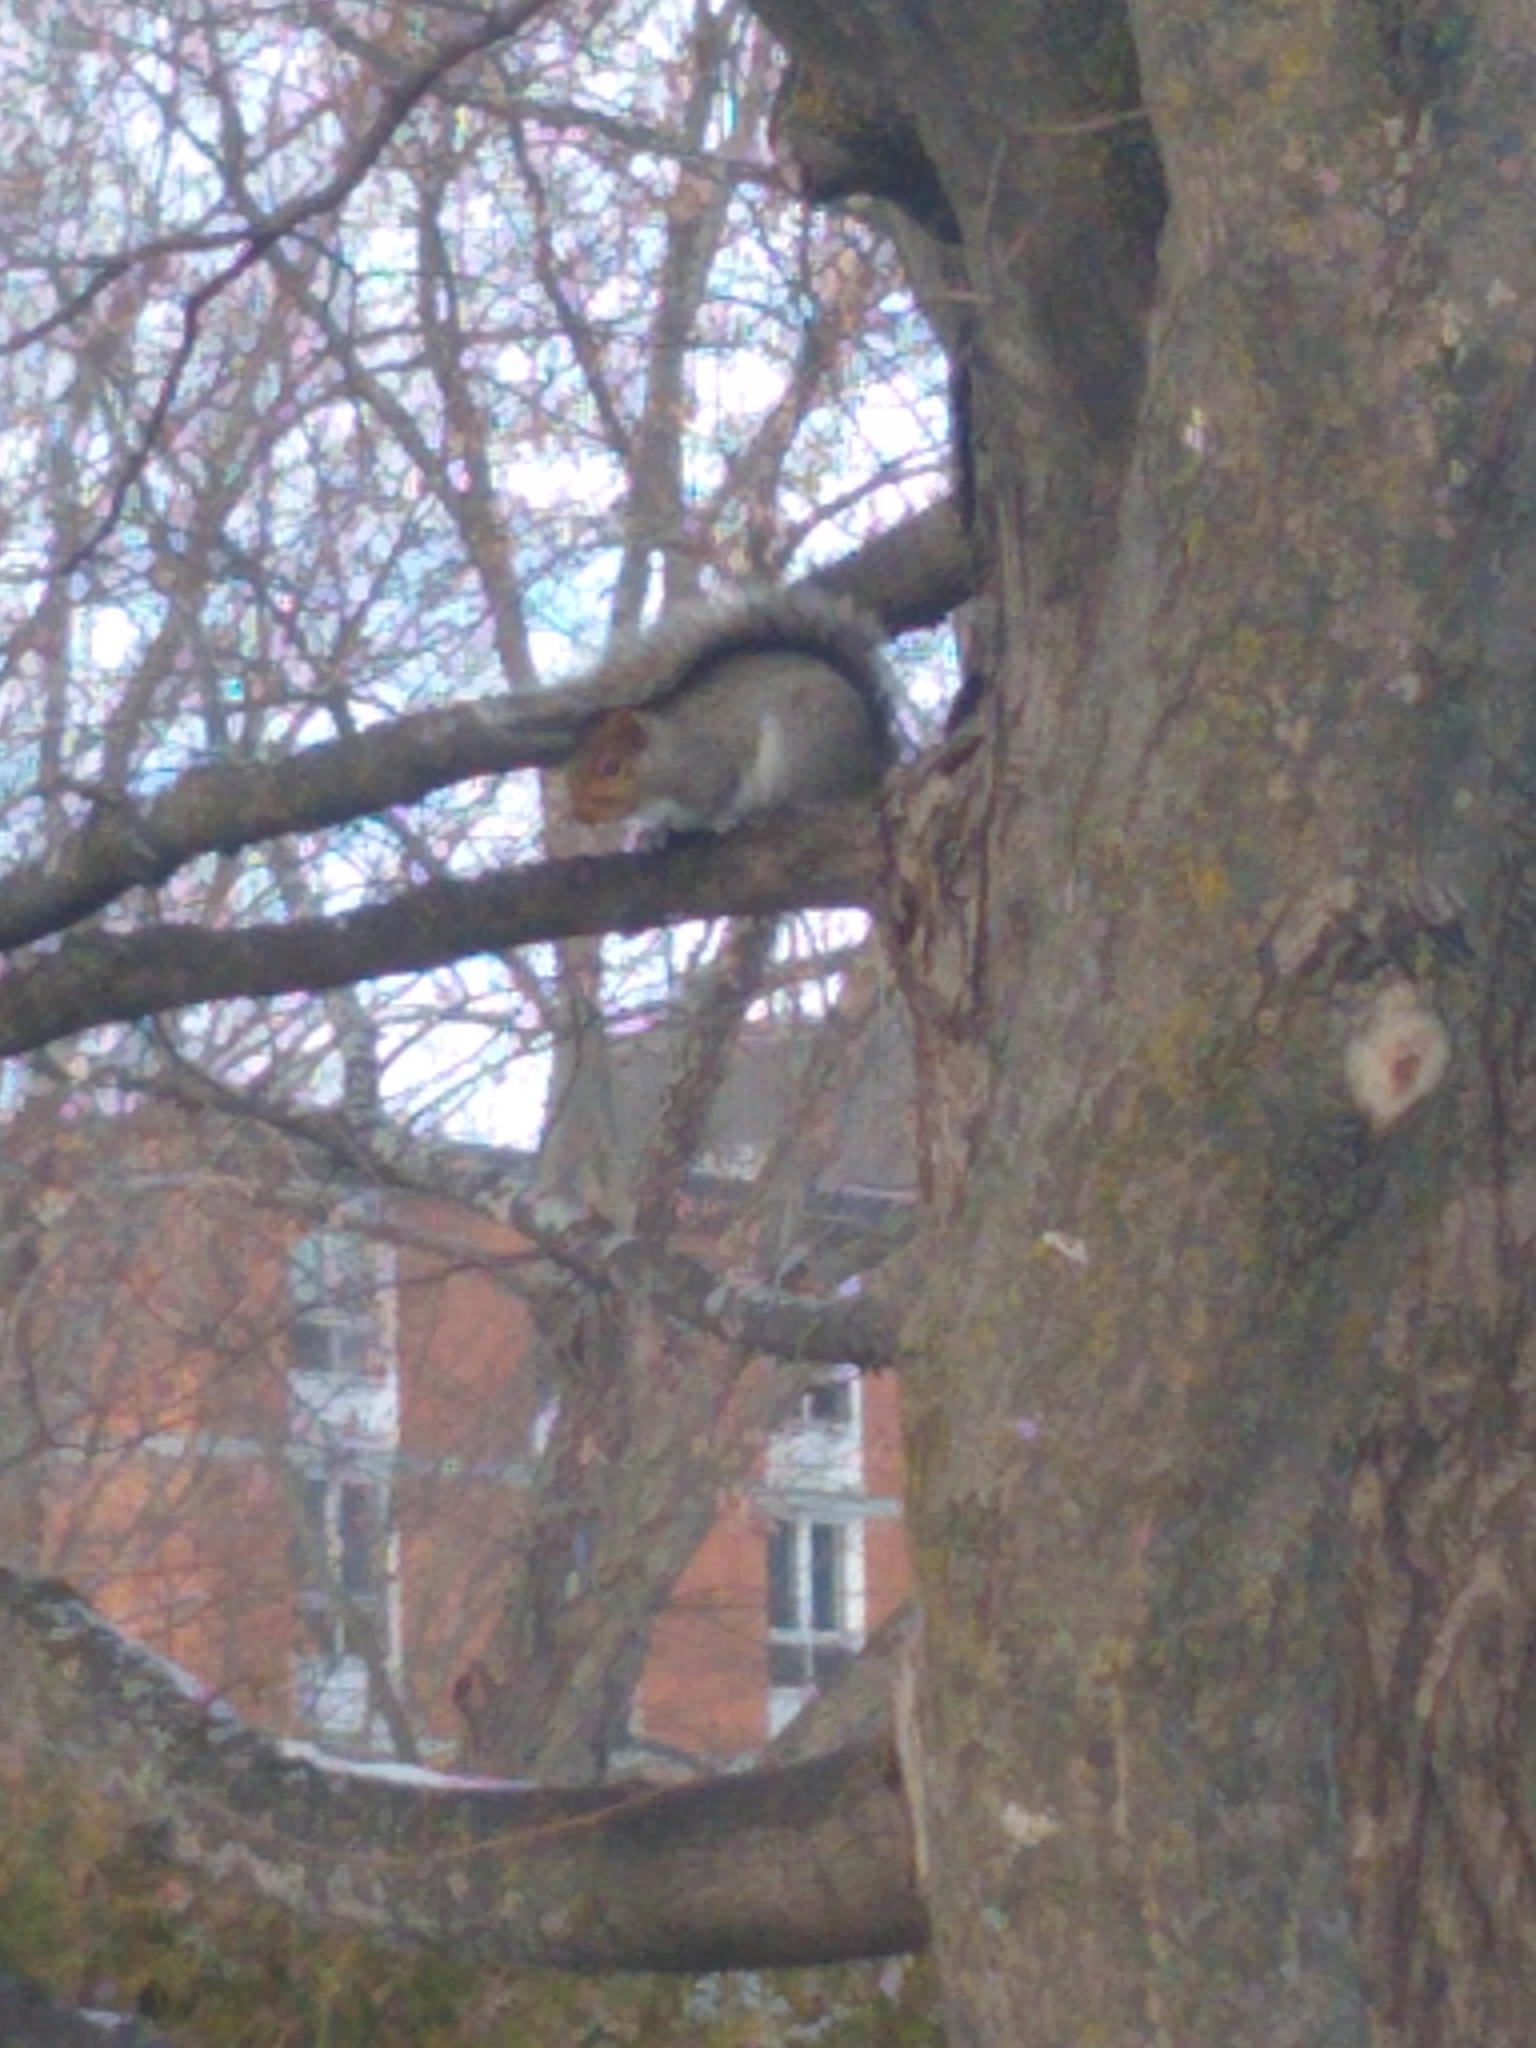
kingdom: Animalia
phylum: Chordata
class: Mammalia
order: Rodentia
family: Sciuridae
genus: Sciurus
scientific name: Sciurus carolinensis
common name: Eastern gray squirrel
